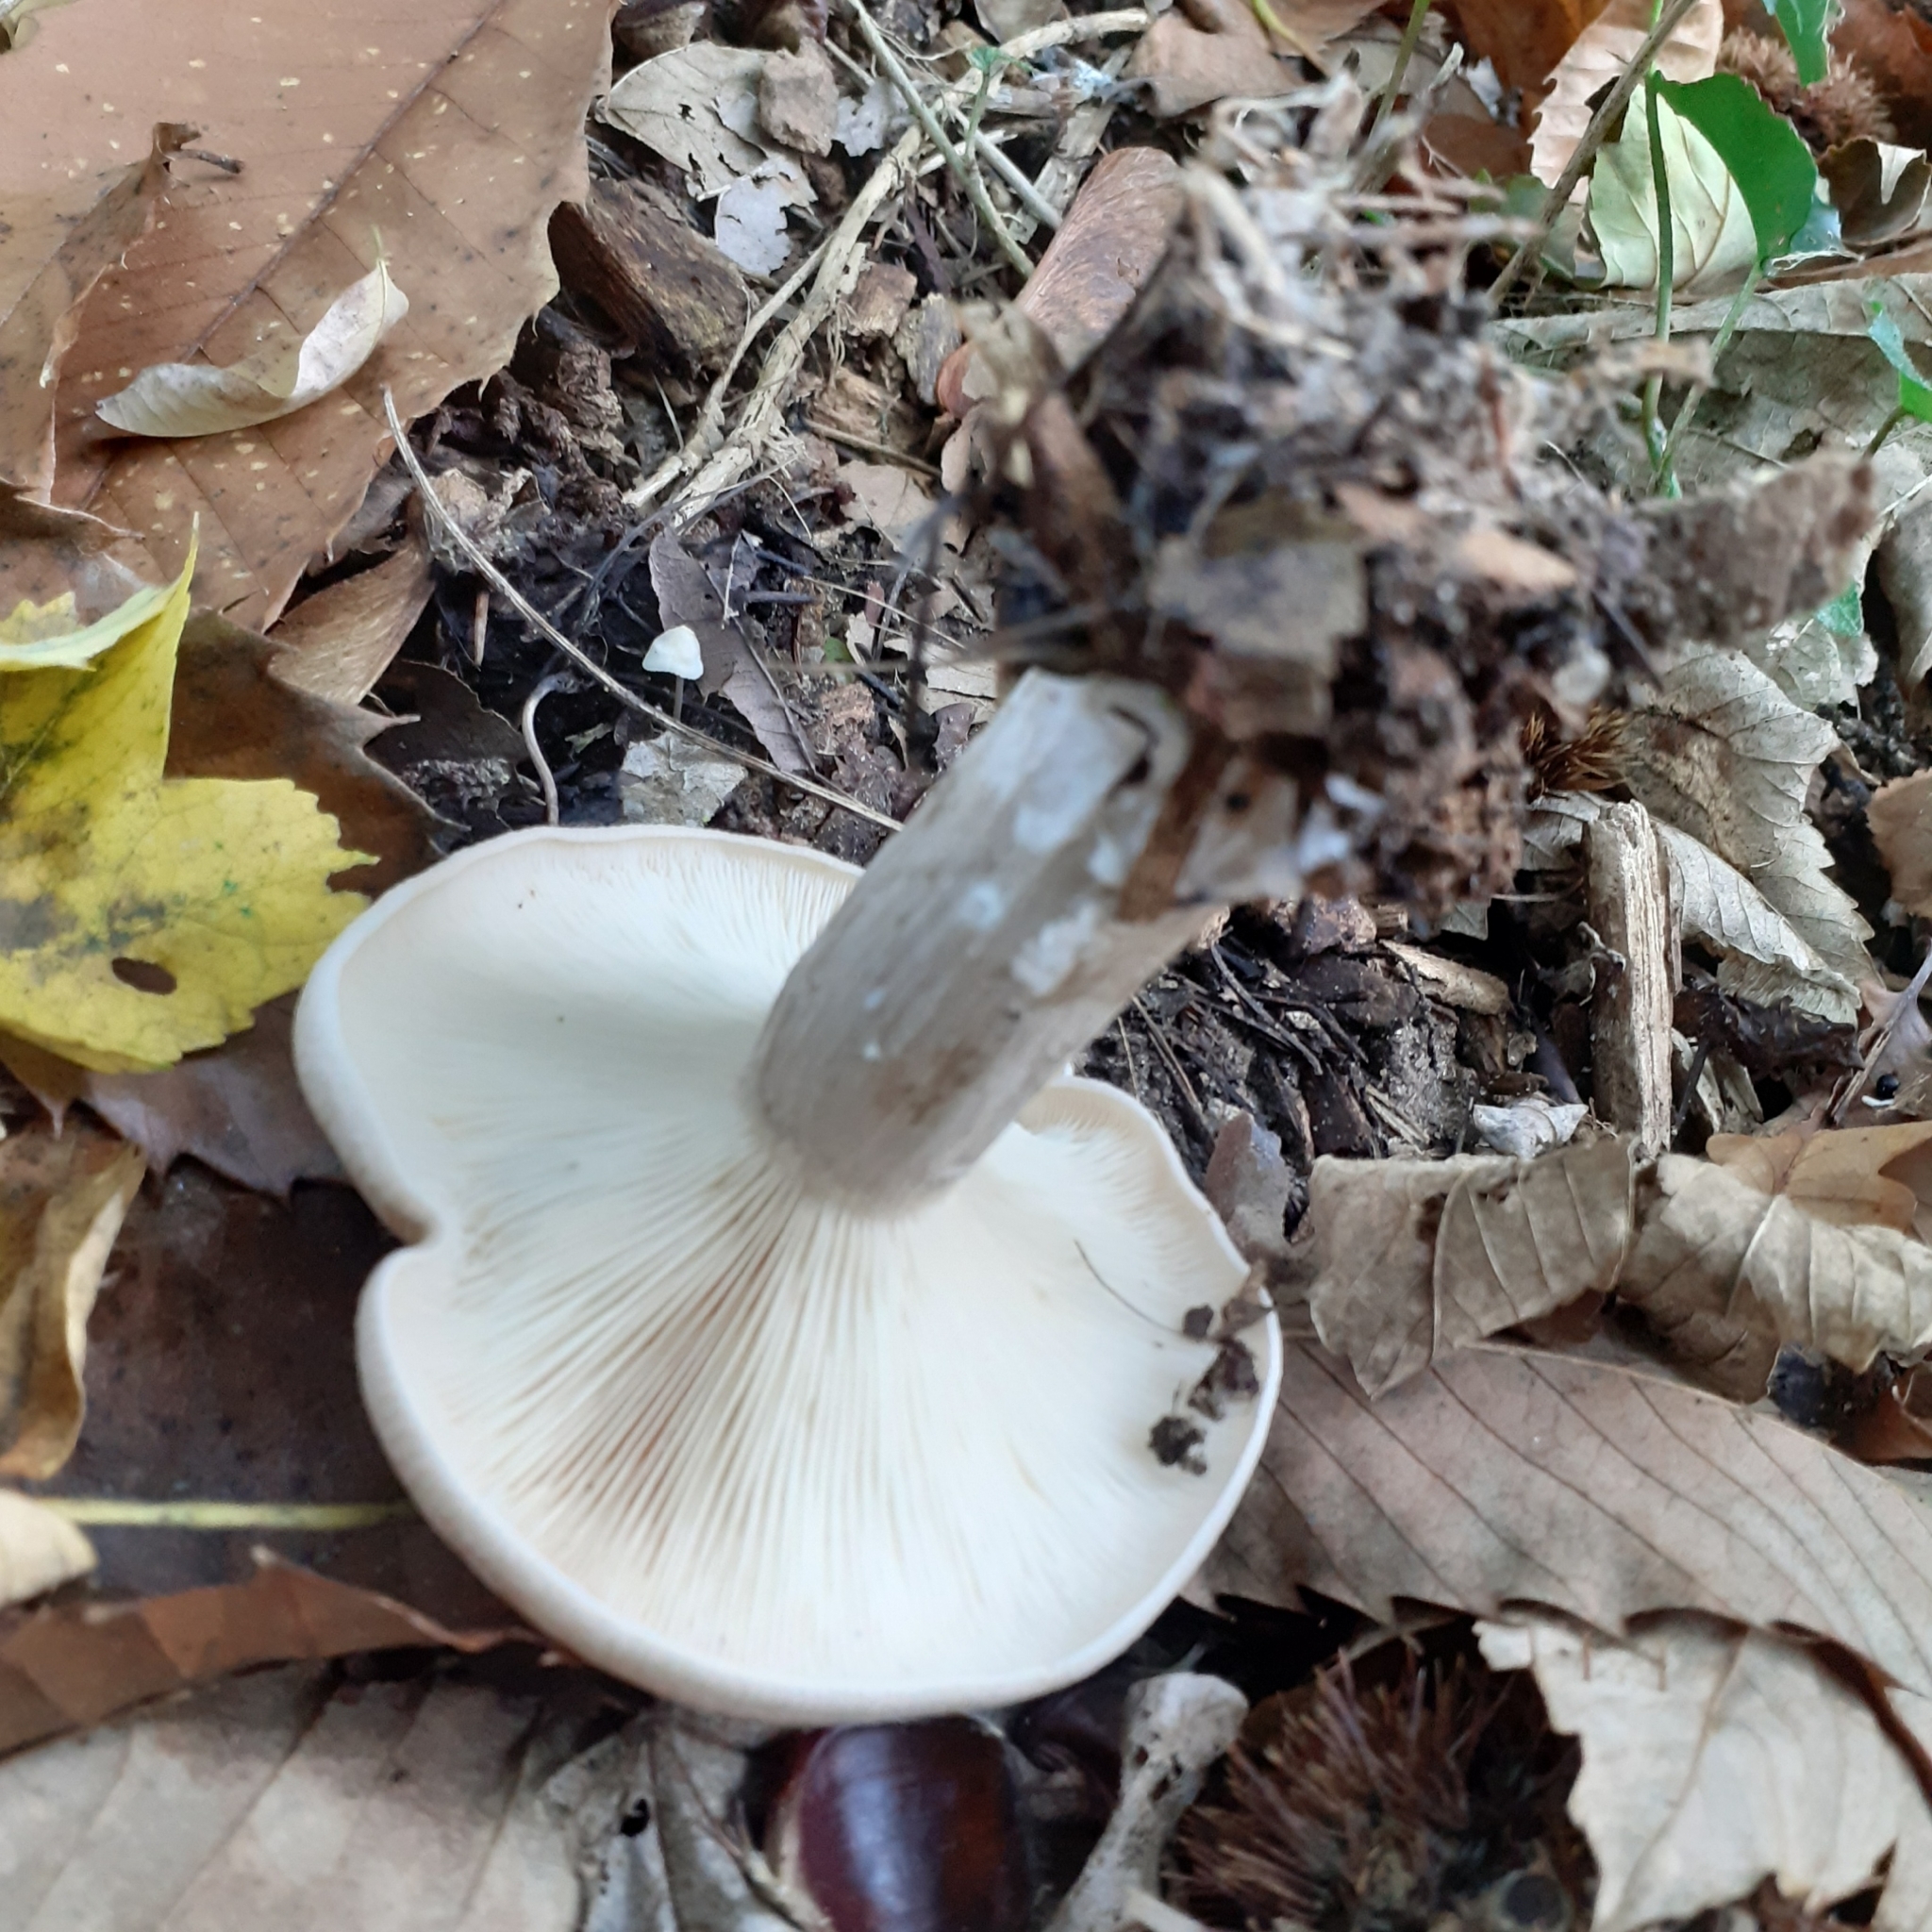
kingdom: Fungi
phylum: Basidiomycota
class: Agaricomycetes
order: Agaricales
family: Tricholomataceae
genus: Clitocybe
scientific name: Clitocybe nebularis
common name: Clouded agaric
